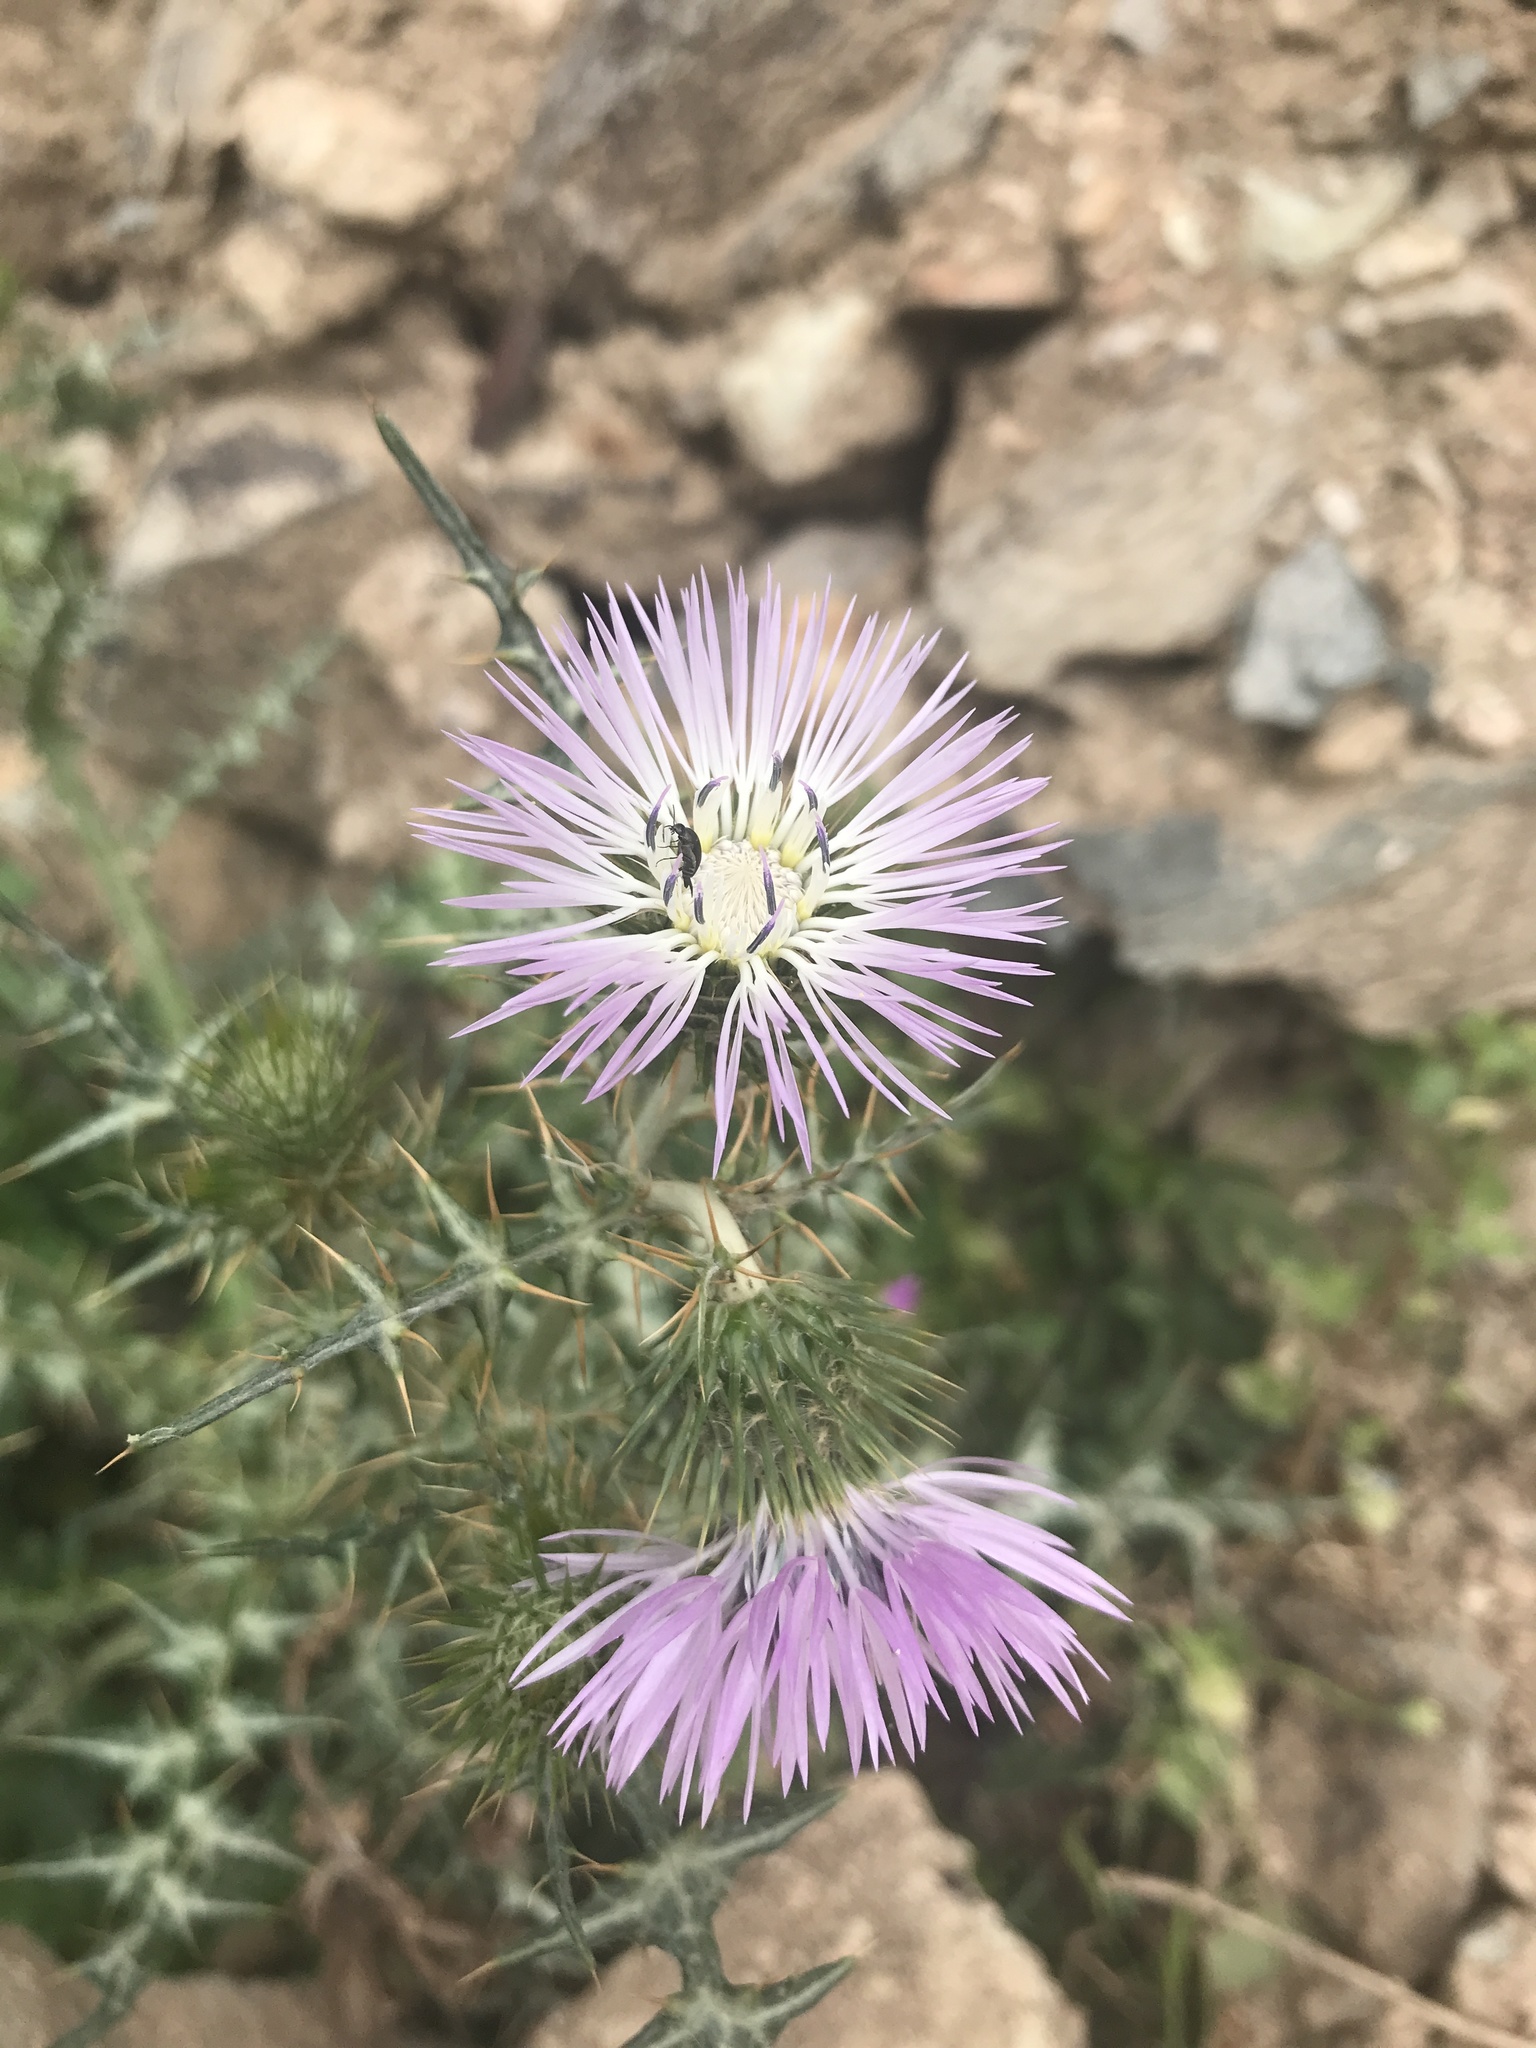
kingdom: Plantae
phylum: Tracheophyta
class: Magnoliopsida
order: Asterales
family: Asteraceae
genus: Galactites
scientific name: Galactites tomentosa
